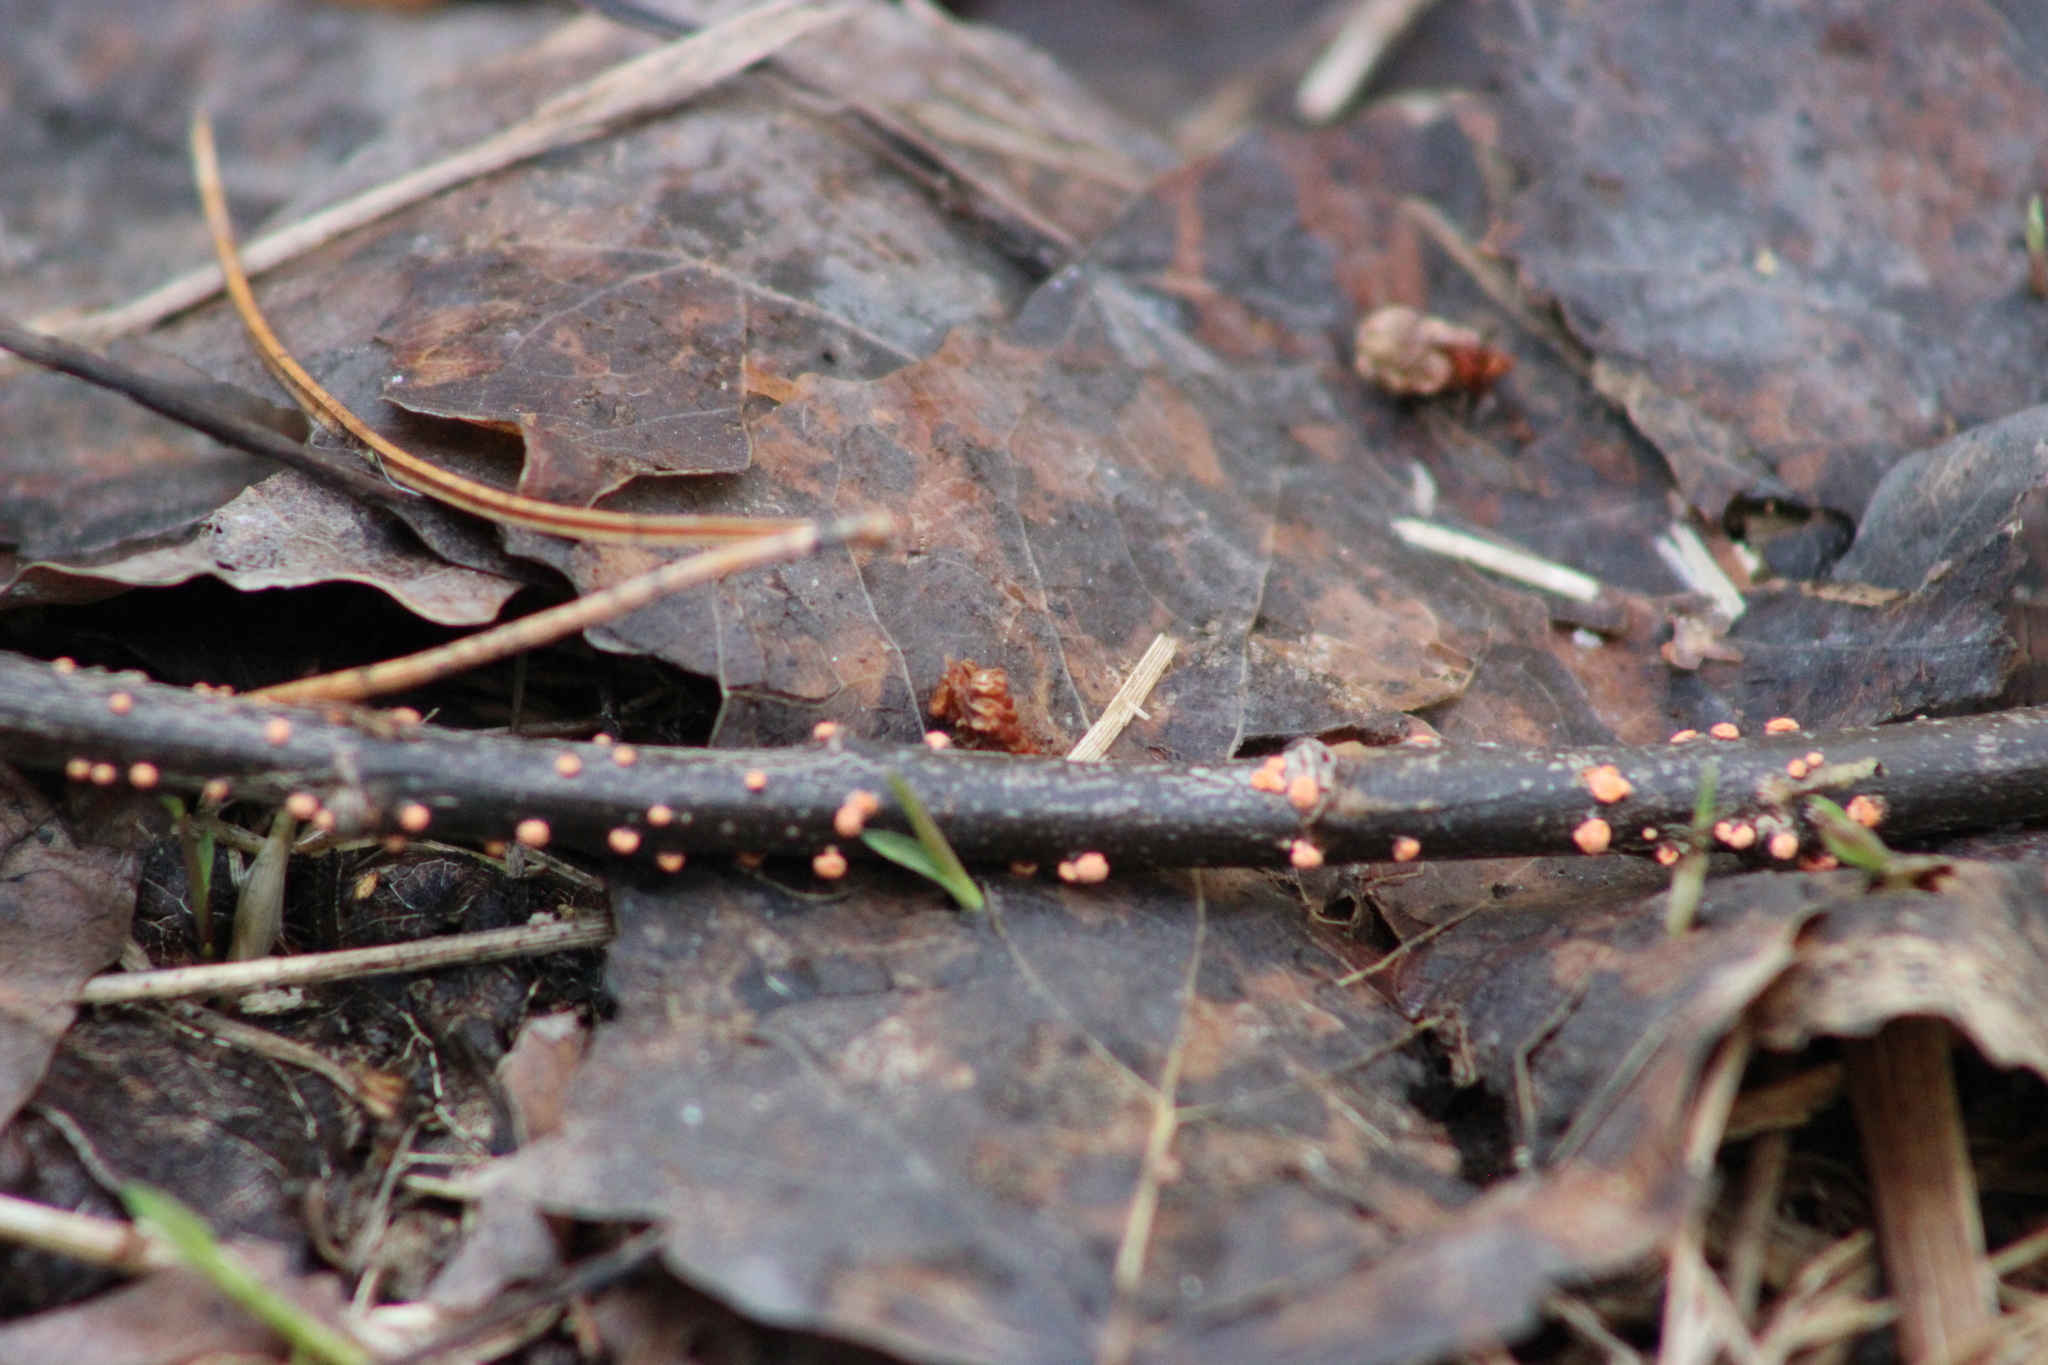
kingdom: Fungi
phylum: Ascomycota
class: Sordariomycetes
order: Hypocreales
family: Nectriaceae
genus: Nectria
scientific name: Nectria cinnabarina
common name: Coral spot
